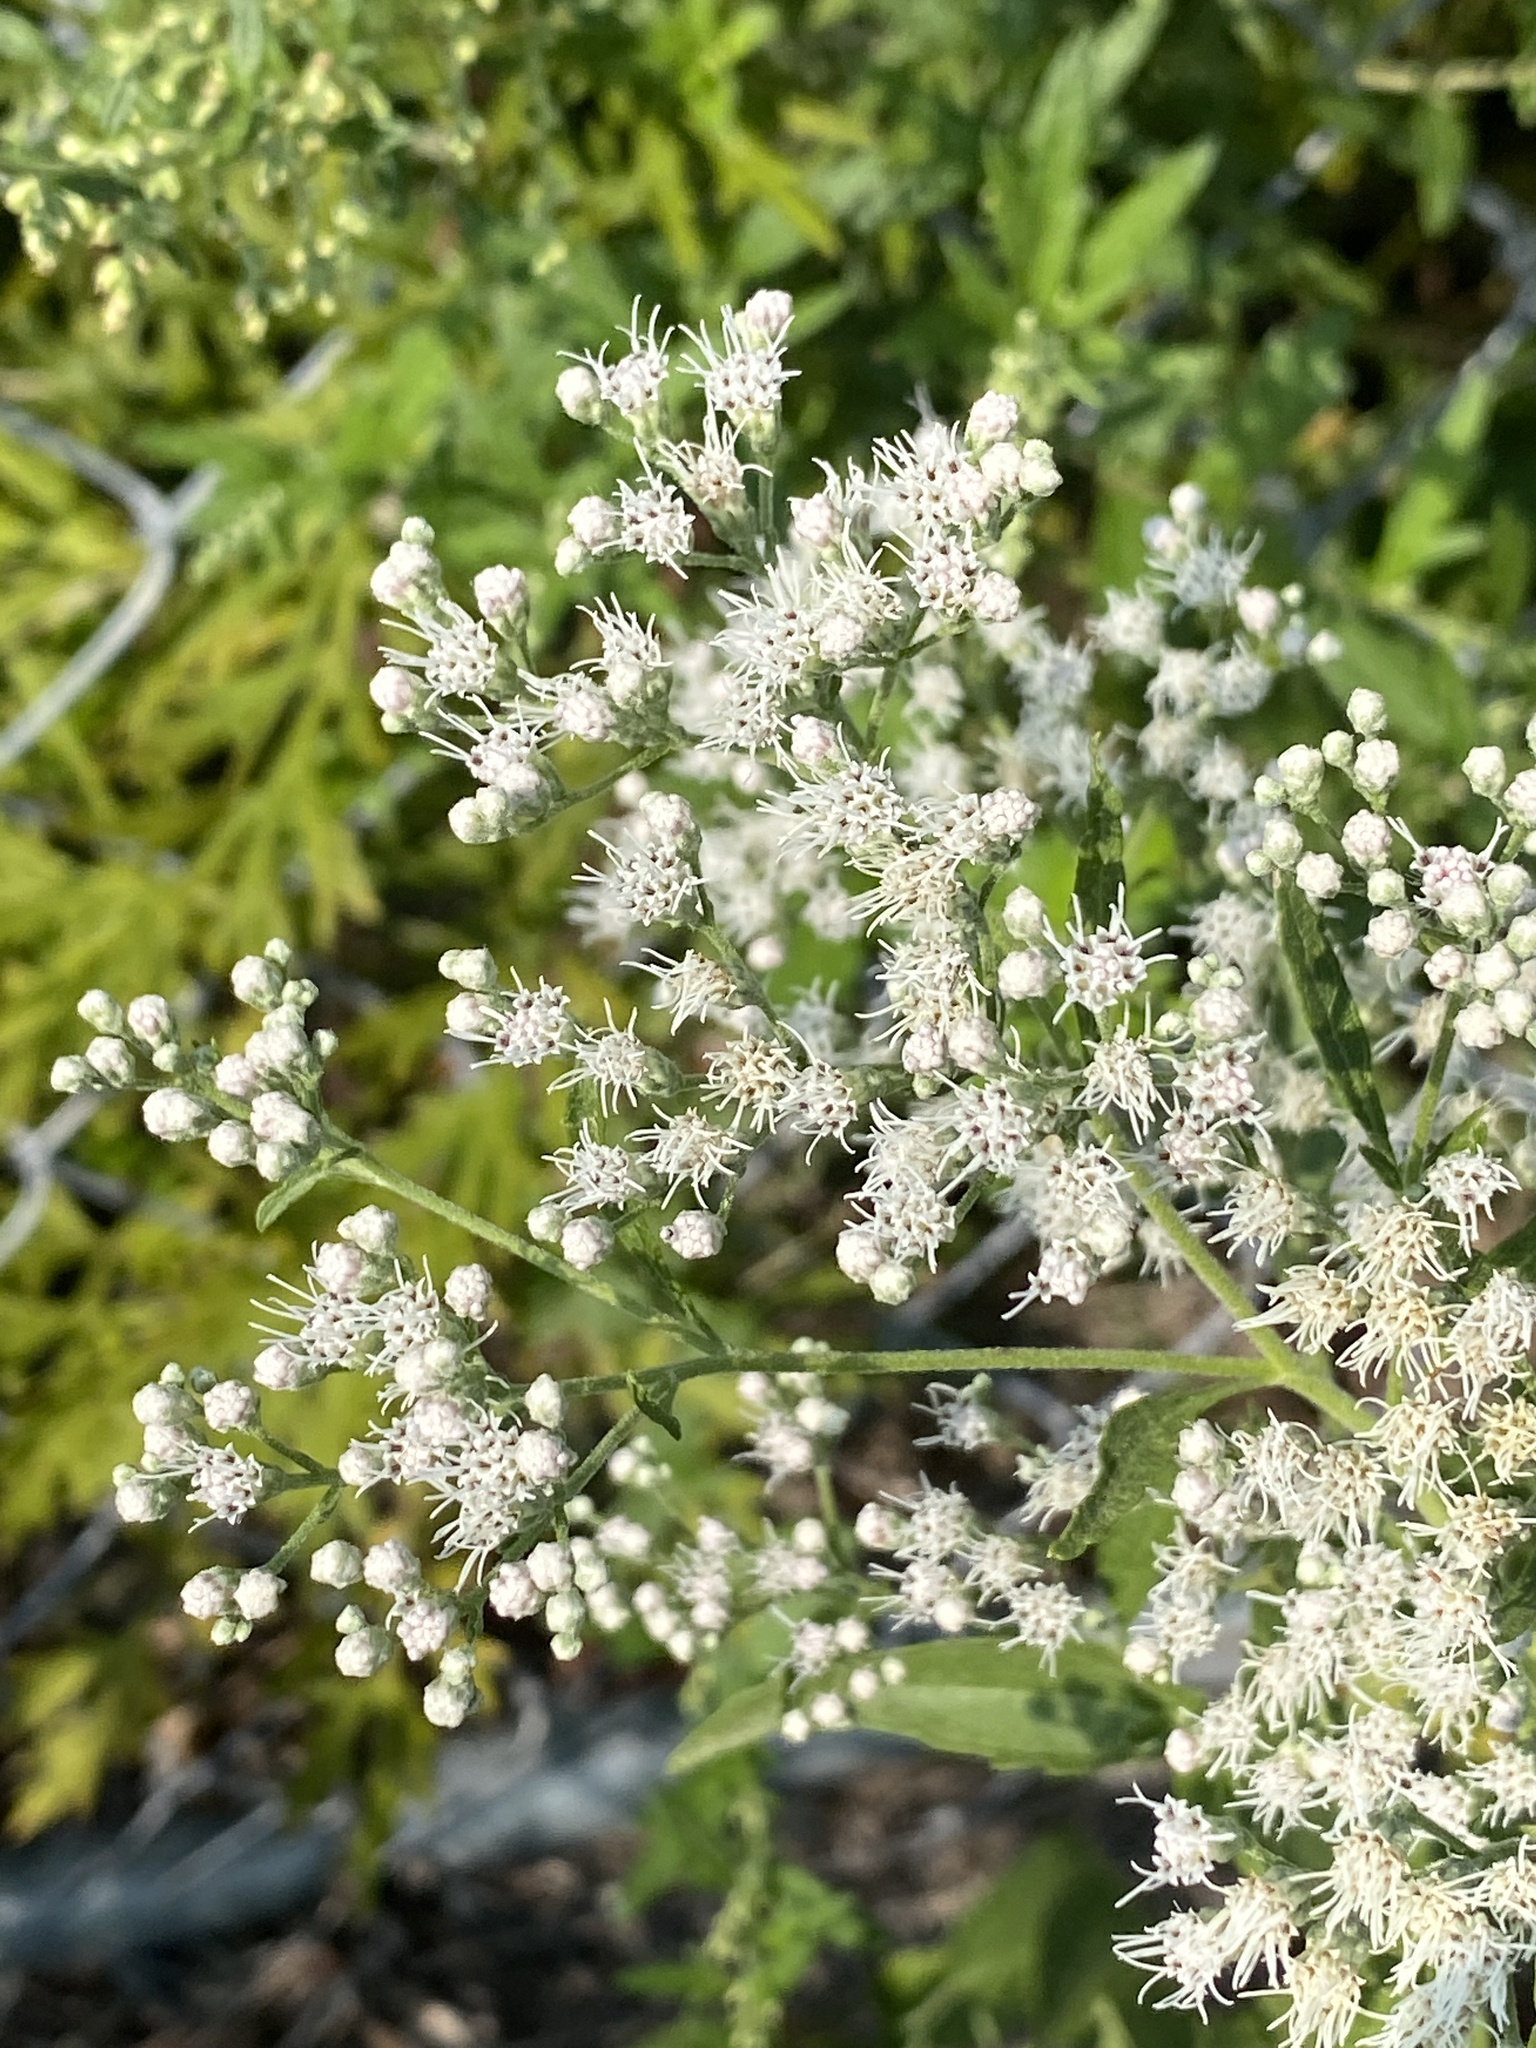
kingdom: Plantae
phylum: Tracheophyta
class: Magnoliopsida
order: Asterales
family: Asteraceae
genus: Eupatorium
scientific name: Eupatorium serotinum
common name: Late boneset
